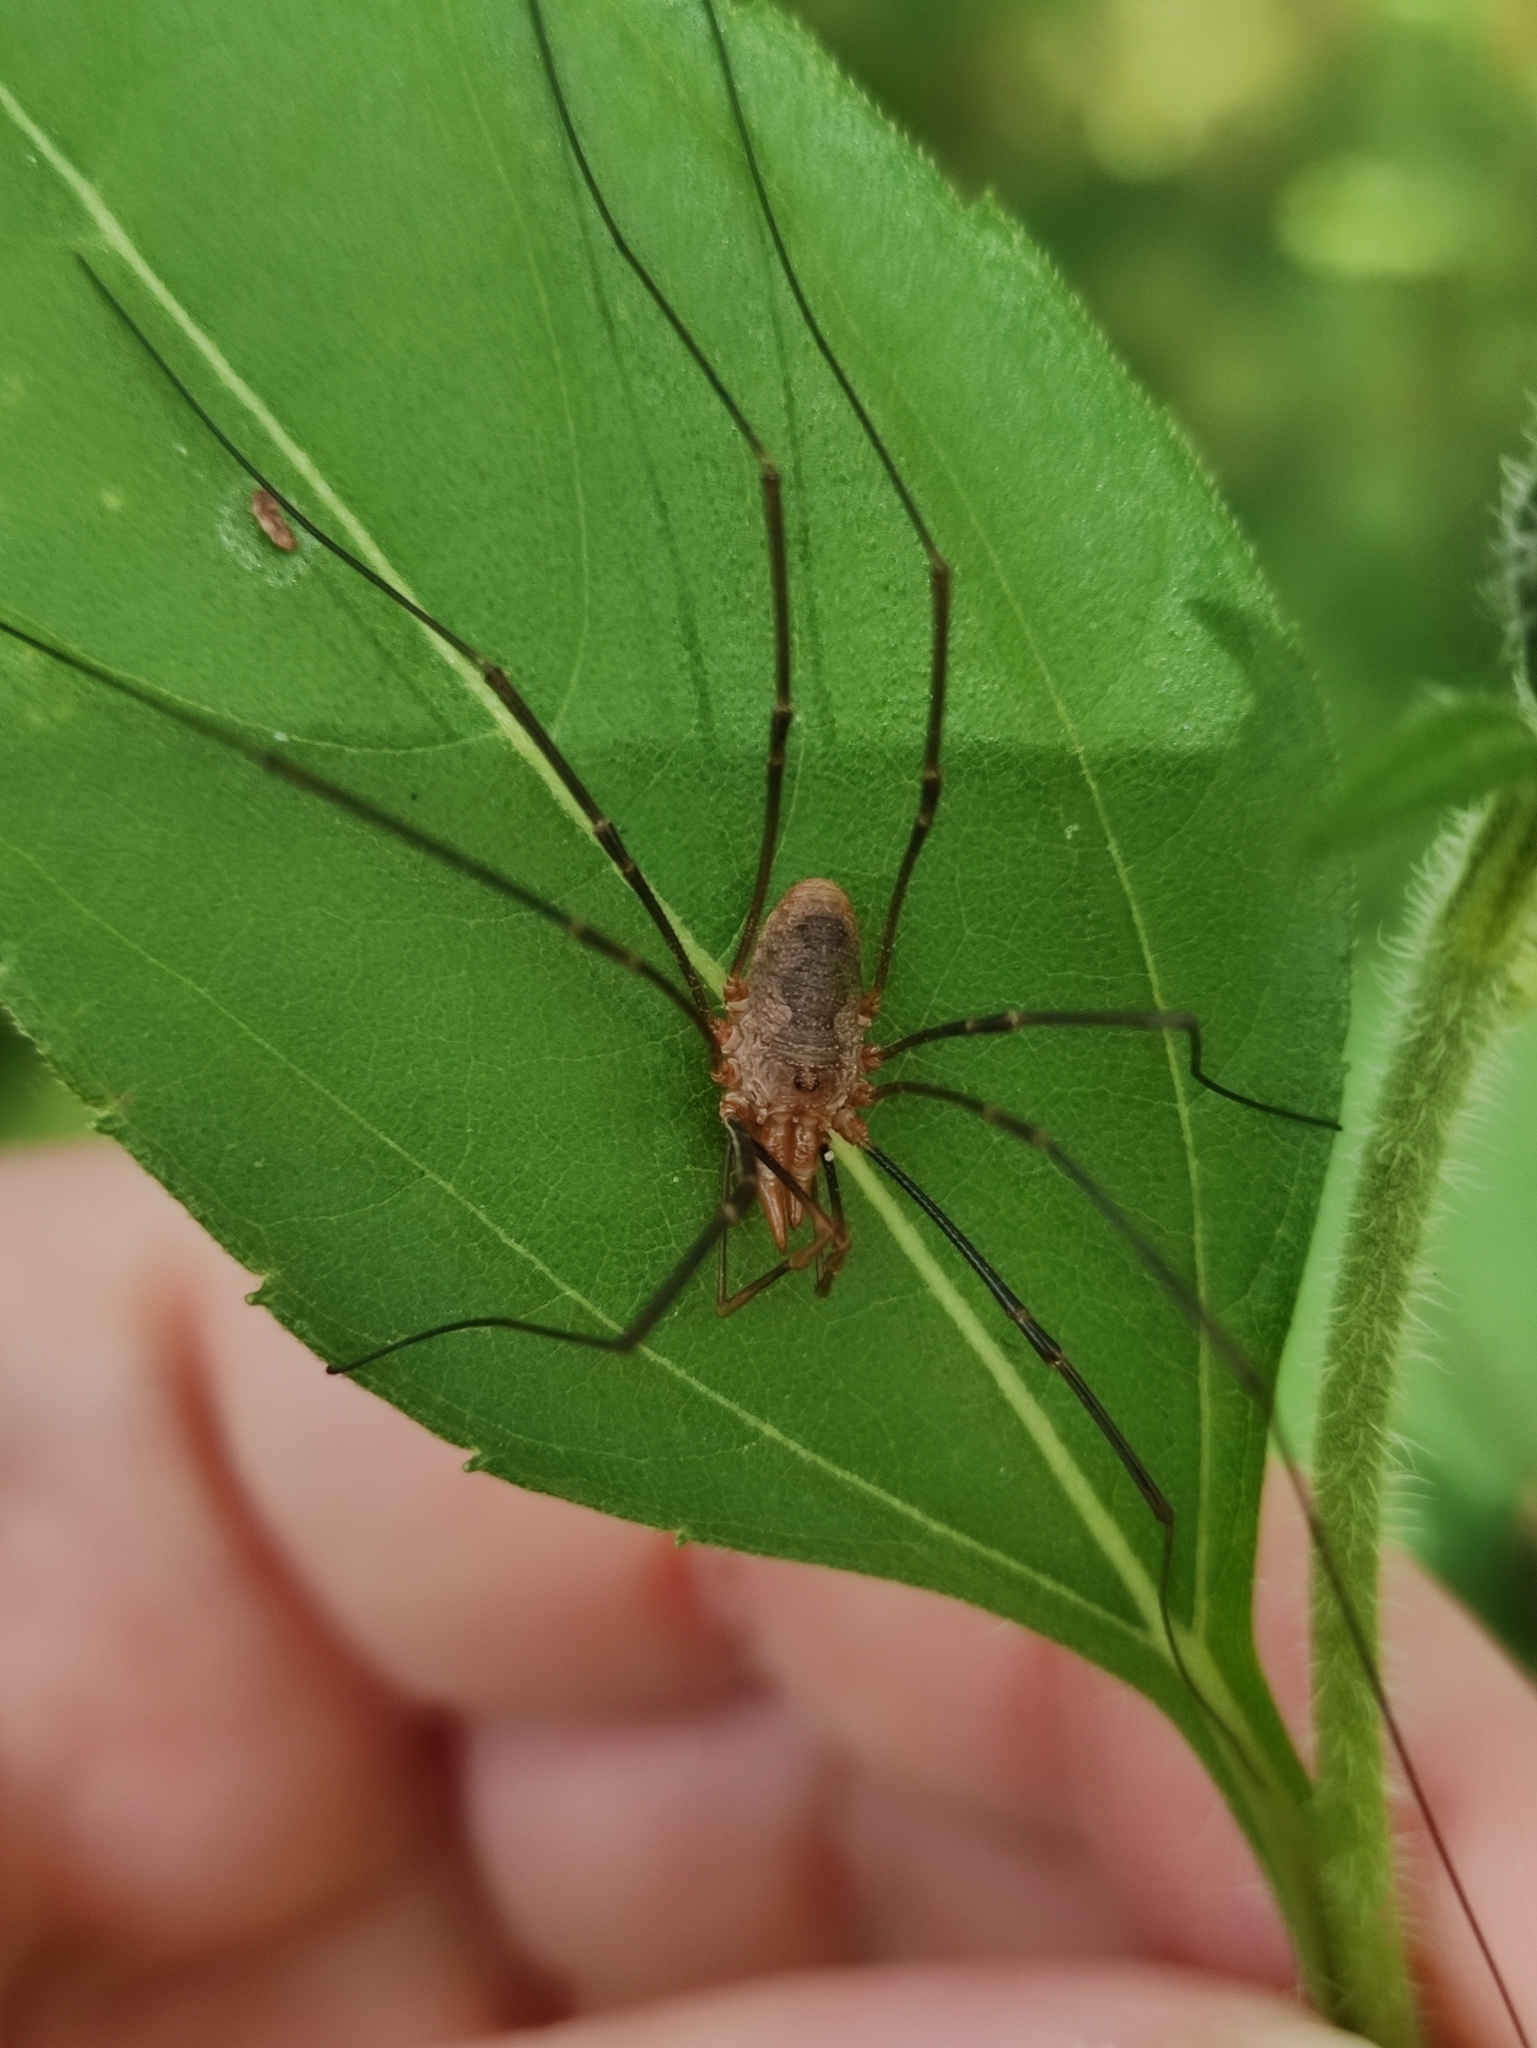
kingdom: Animalia
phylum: Arthropoda
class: Arachnida
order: Opiliones
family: Phalangiidae
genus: Phalangium
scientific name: Phalangium opilio
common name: Daddy longleg
